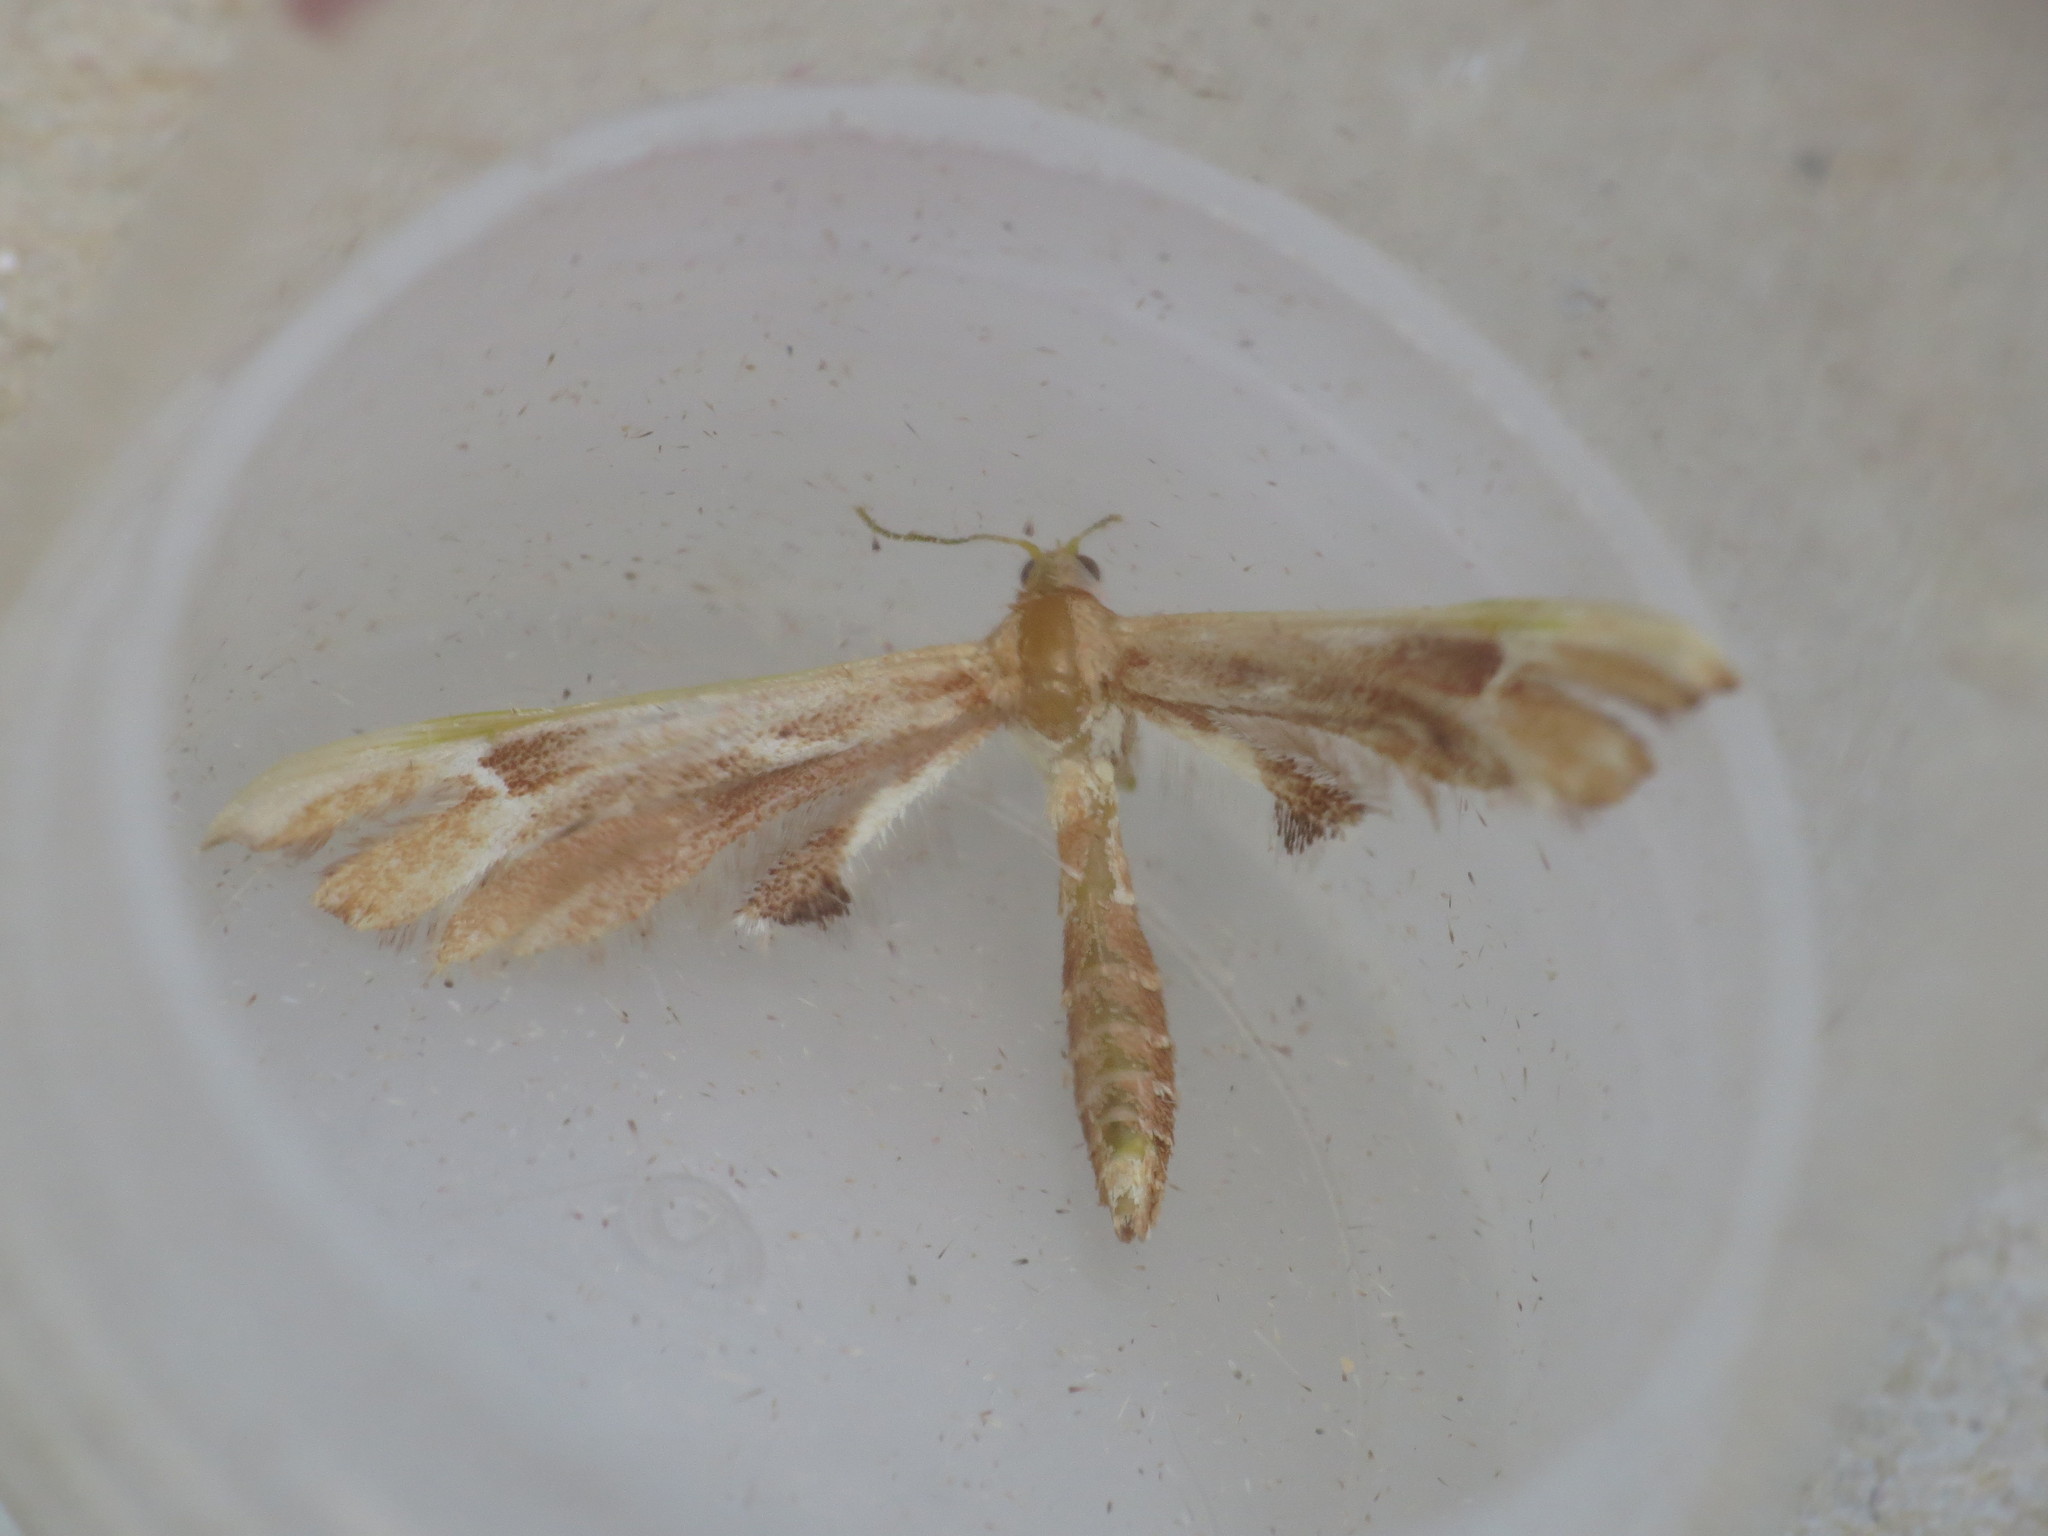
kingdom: Animalia
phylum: Arthropoda
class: Insecta
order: Lepidoptera
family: Pterophoridae
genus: Cnaemidophorus
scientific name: Cnaemidophorus rhododactyla
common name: Rose plume
